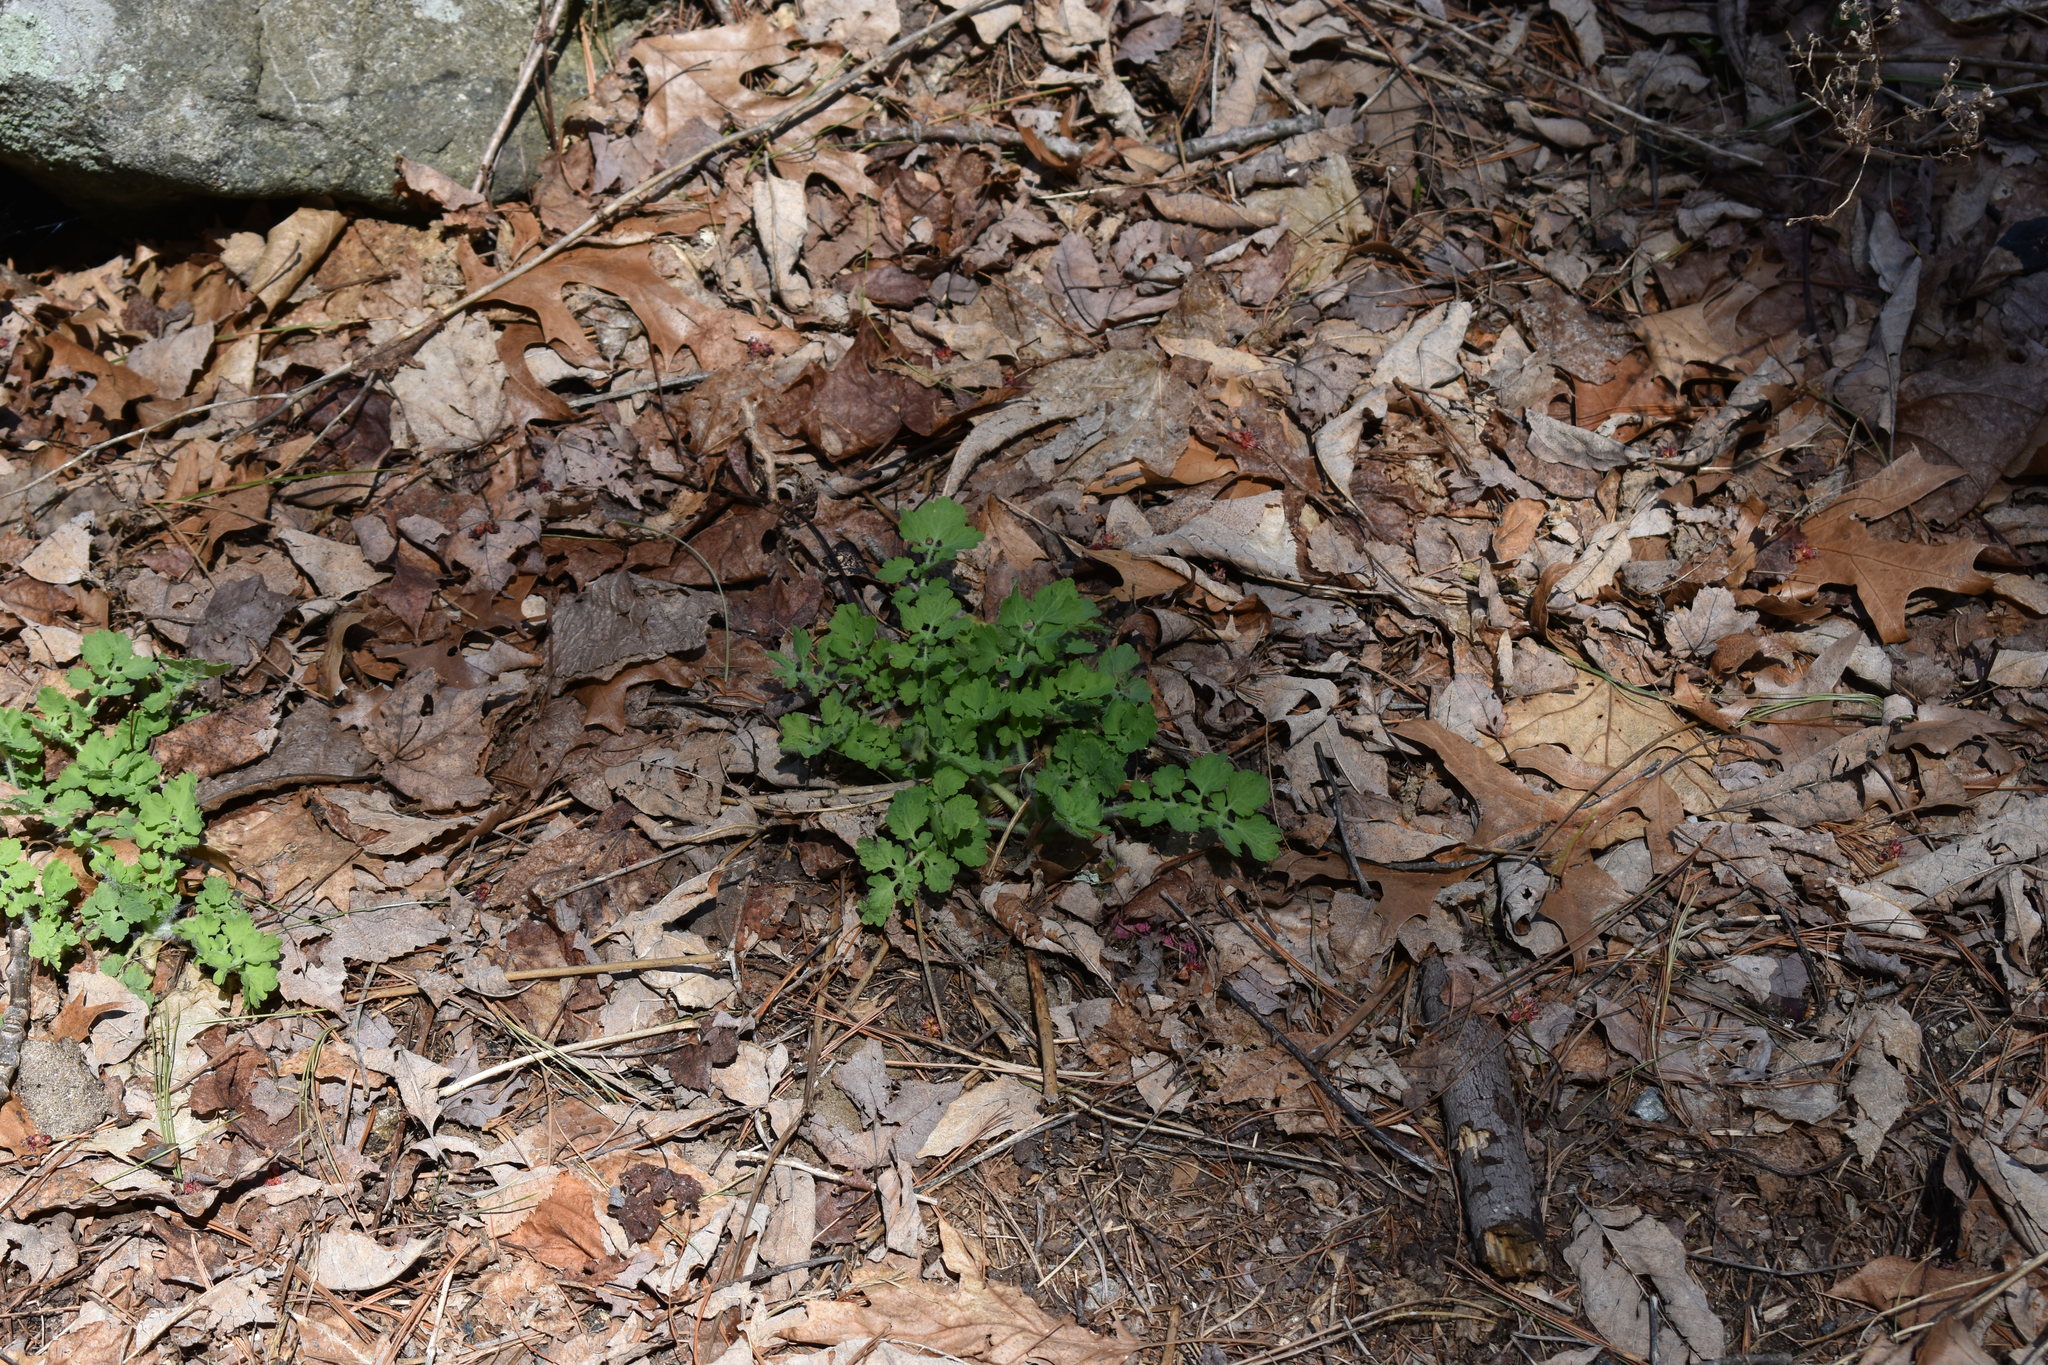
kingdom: Plantae
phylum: Tracheophyta
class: Magnoliopsida
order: Ranunculales
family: Papaveraceae
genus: Chelidonium
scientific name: Chelidonium majus
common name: Greater celandine
